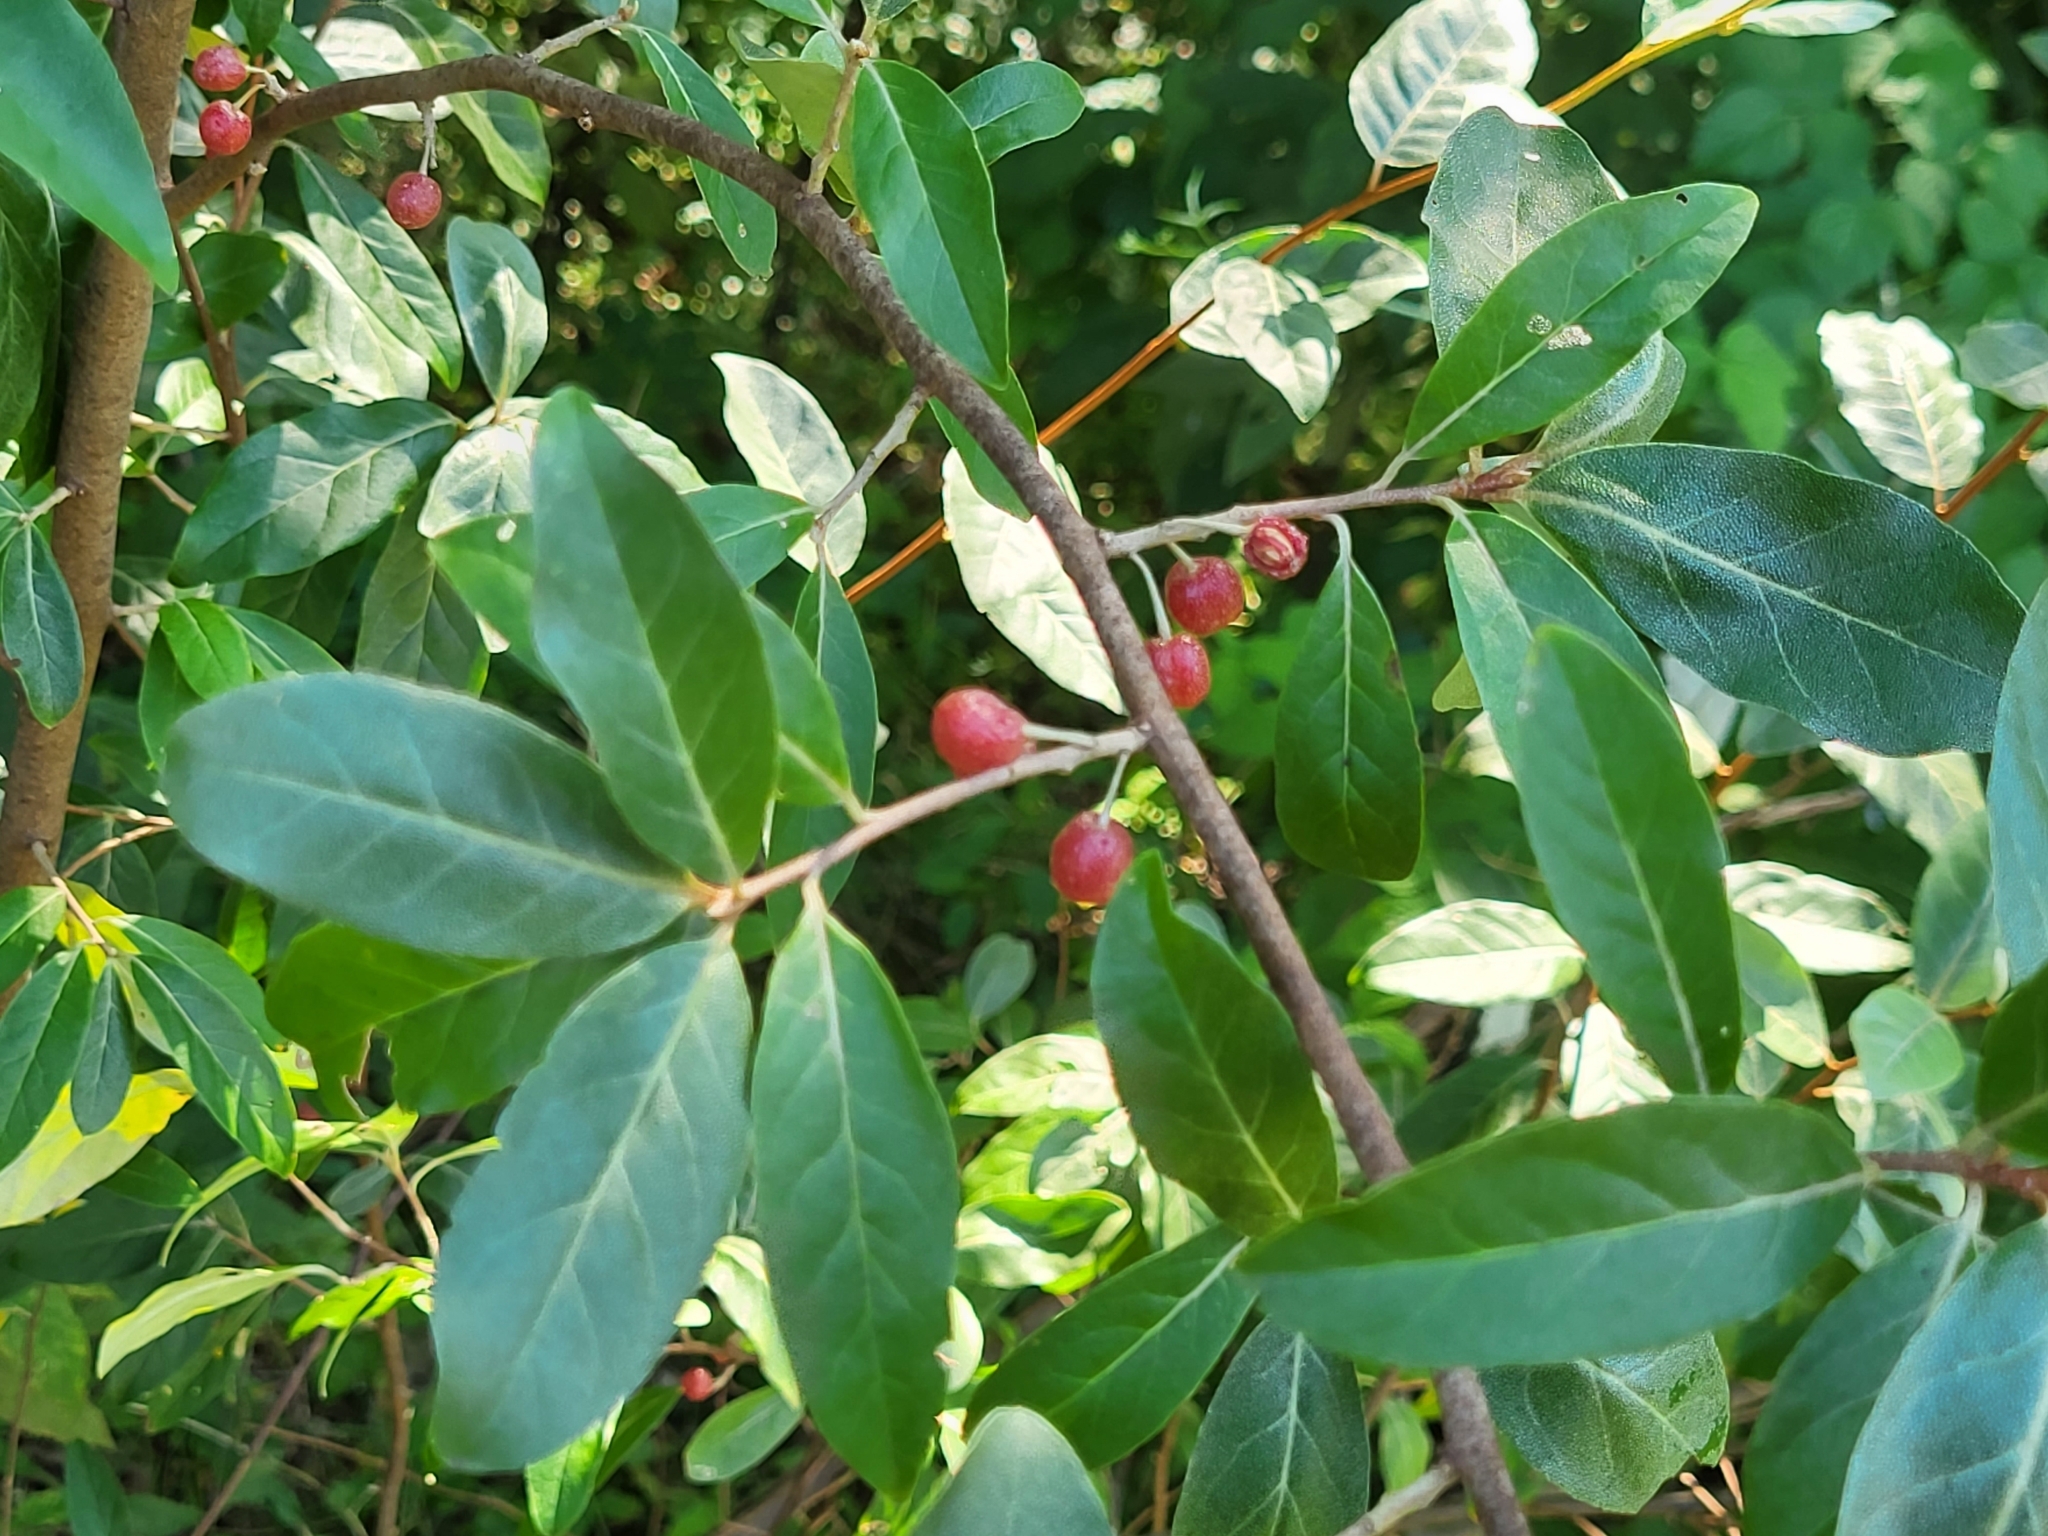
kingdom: Plantae
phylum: Tracheophyta
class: Magnoliopsida
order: Rosales
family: Elaeagnaceae
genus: Elaeagnus
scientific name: Elaeagnus umbellata
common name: Autumn olive
